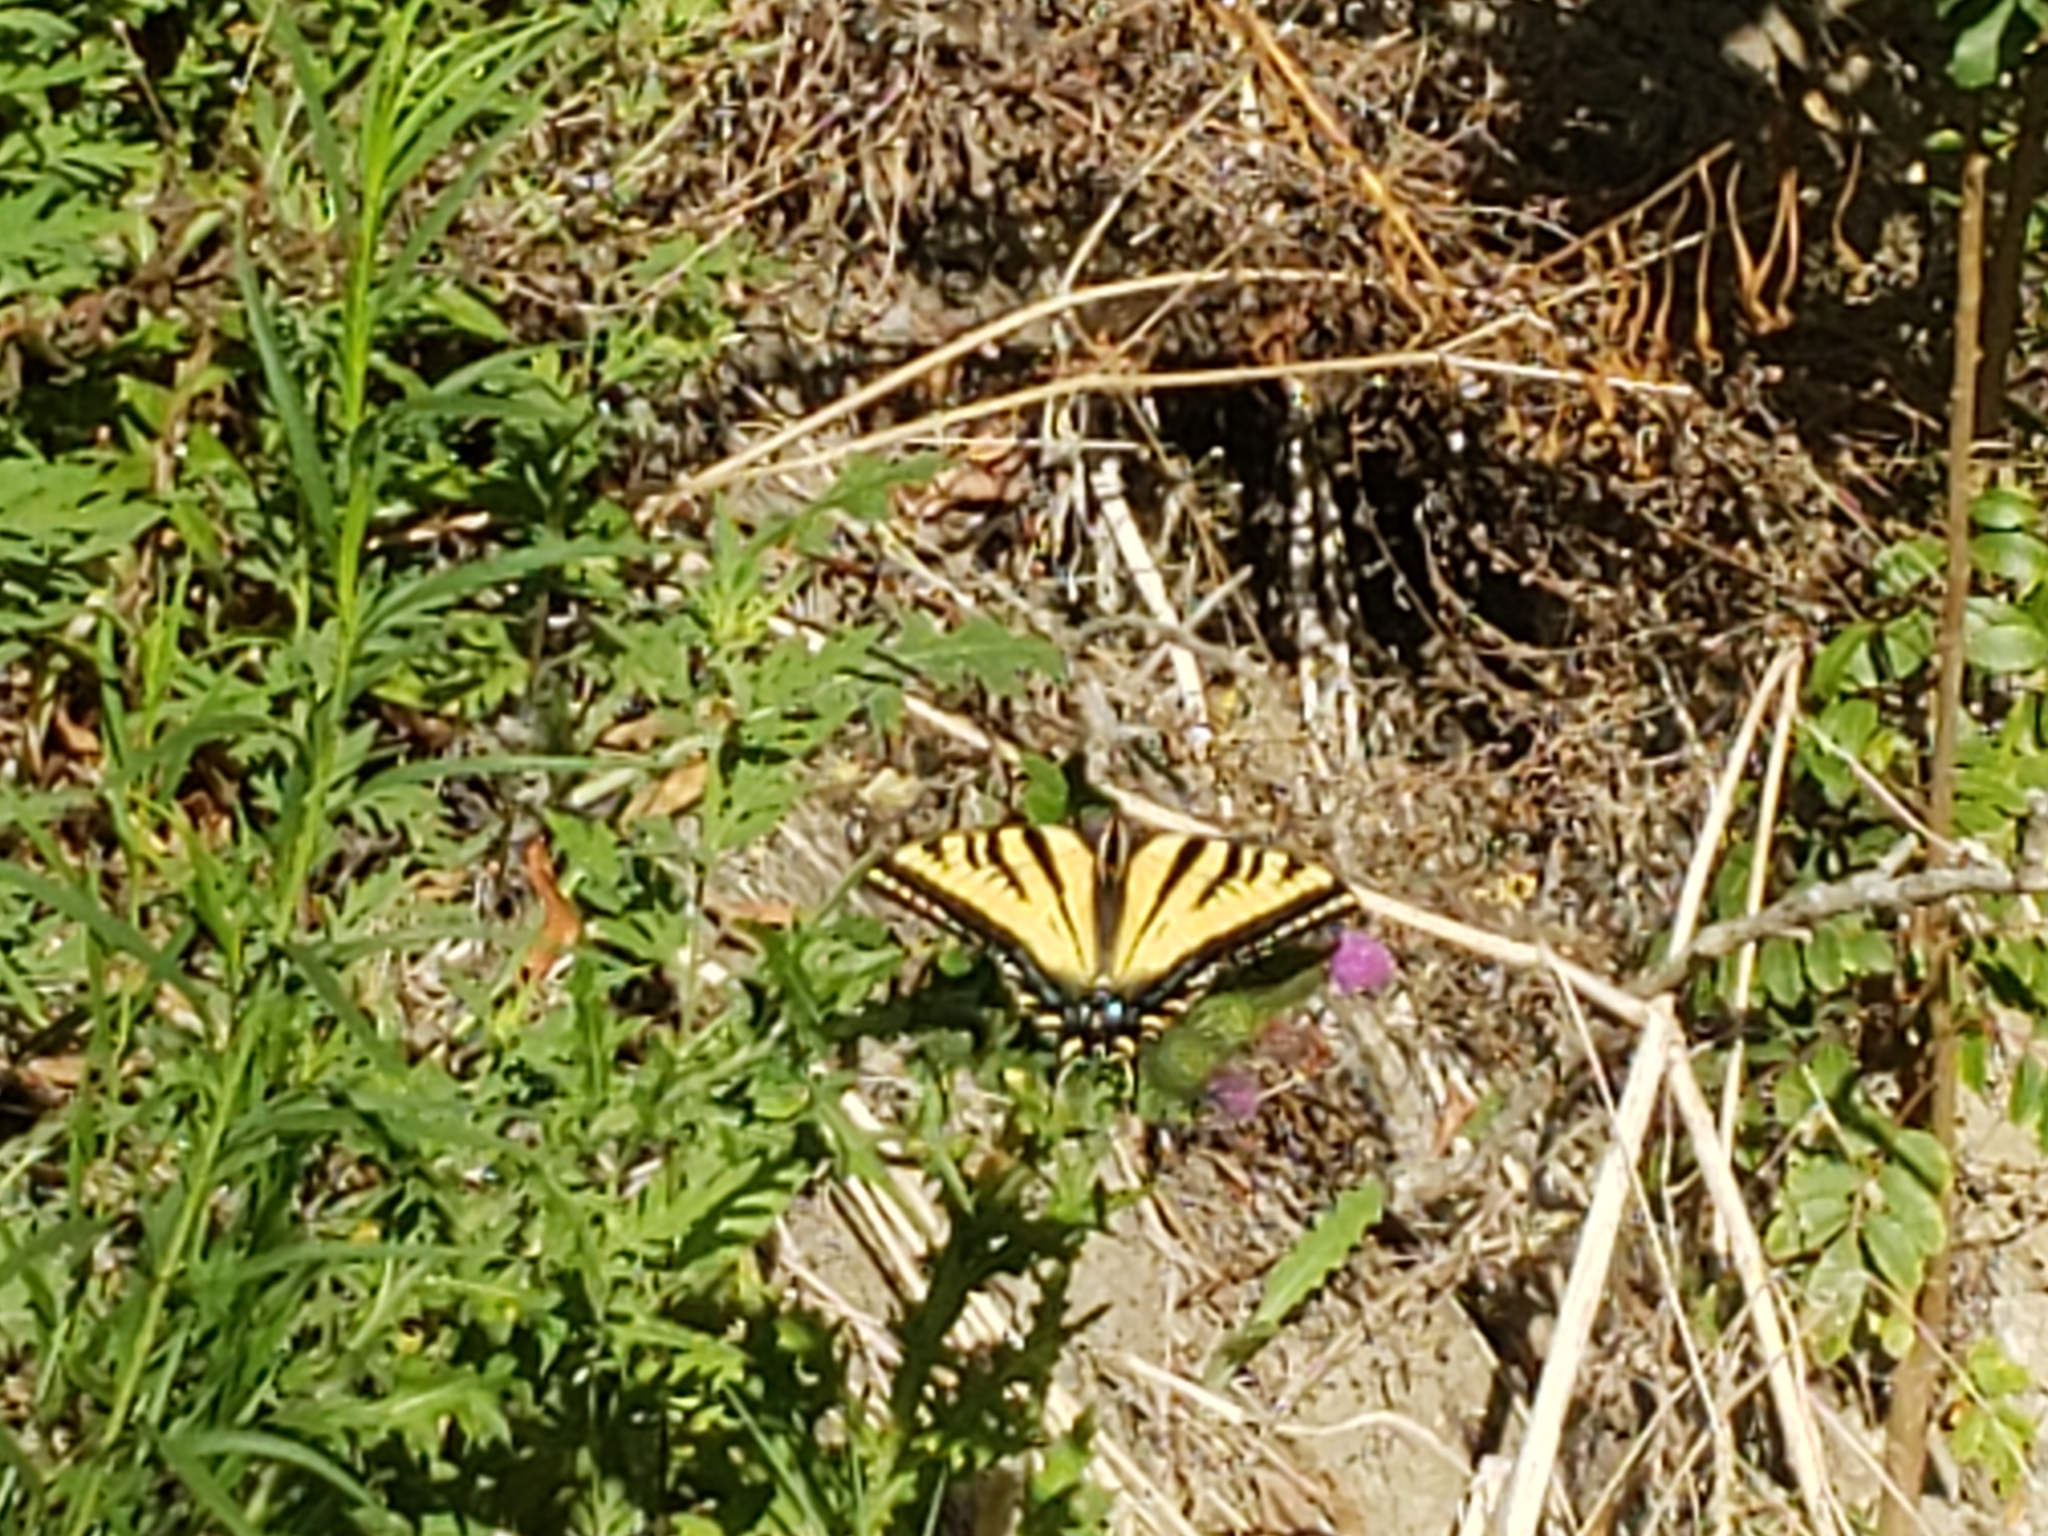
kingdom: Animalia
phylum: Arthropoda
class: Insecta
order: Lepidoptera
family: Papilionidae
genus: Papilio
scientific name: Papilio rutulus
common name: Western tiger swallowtail
